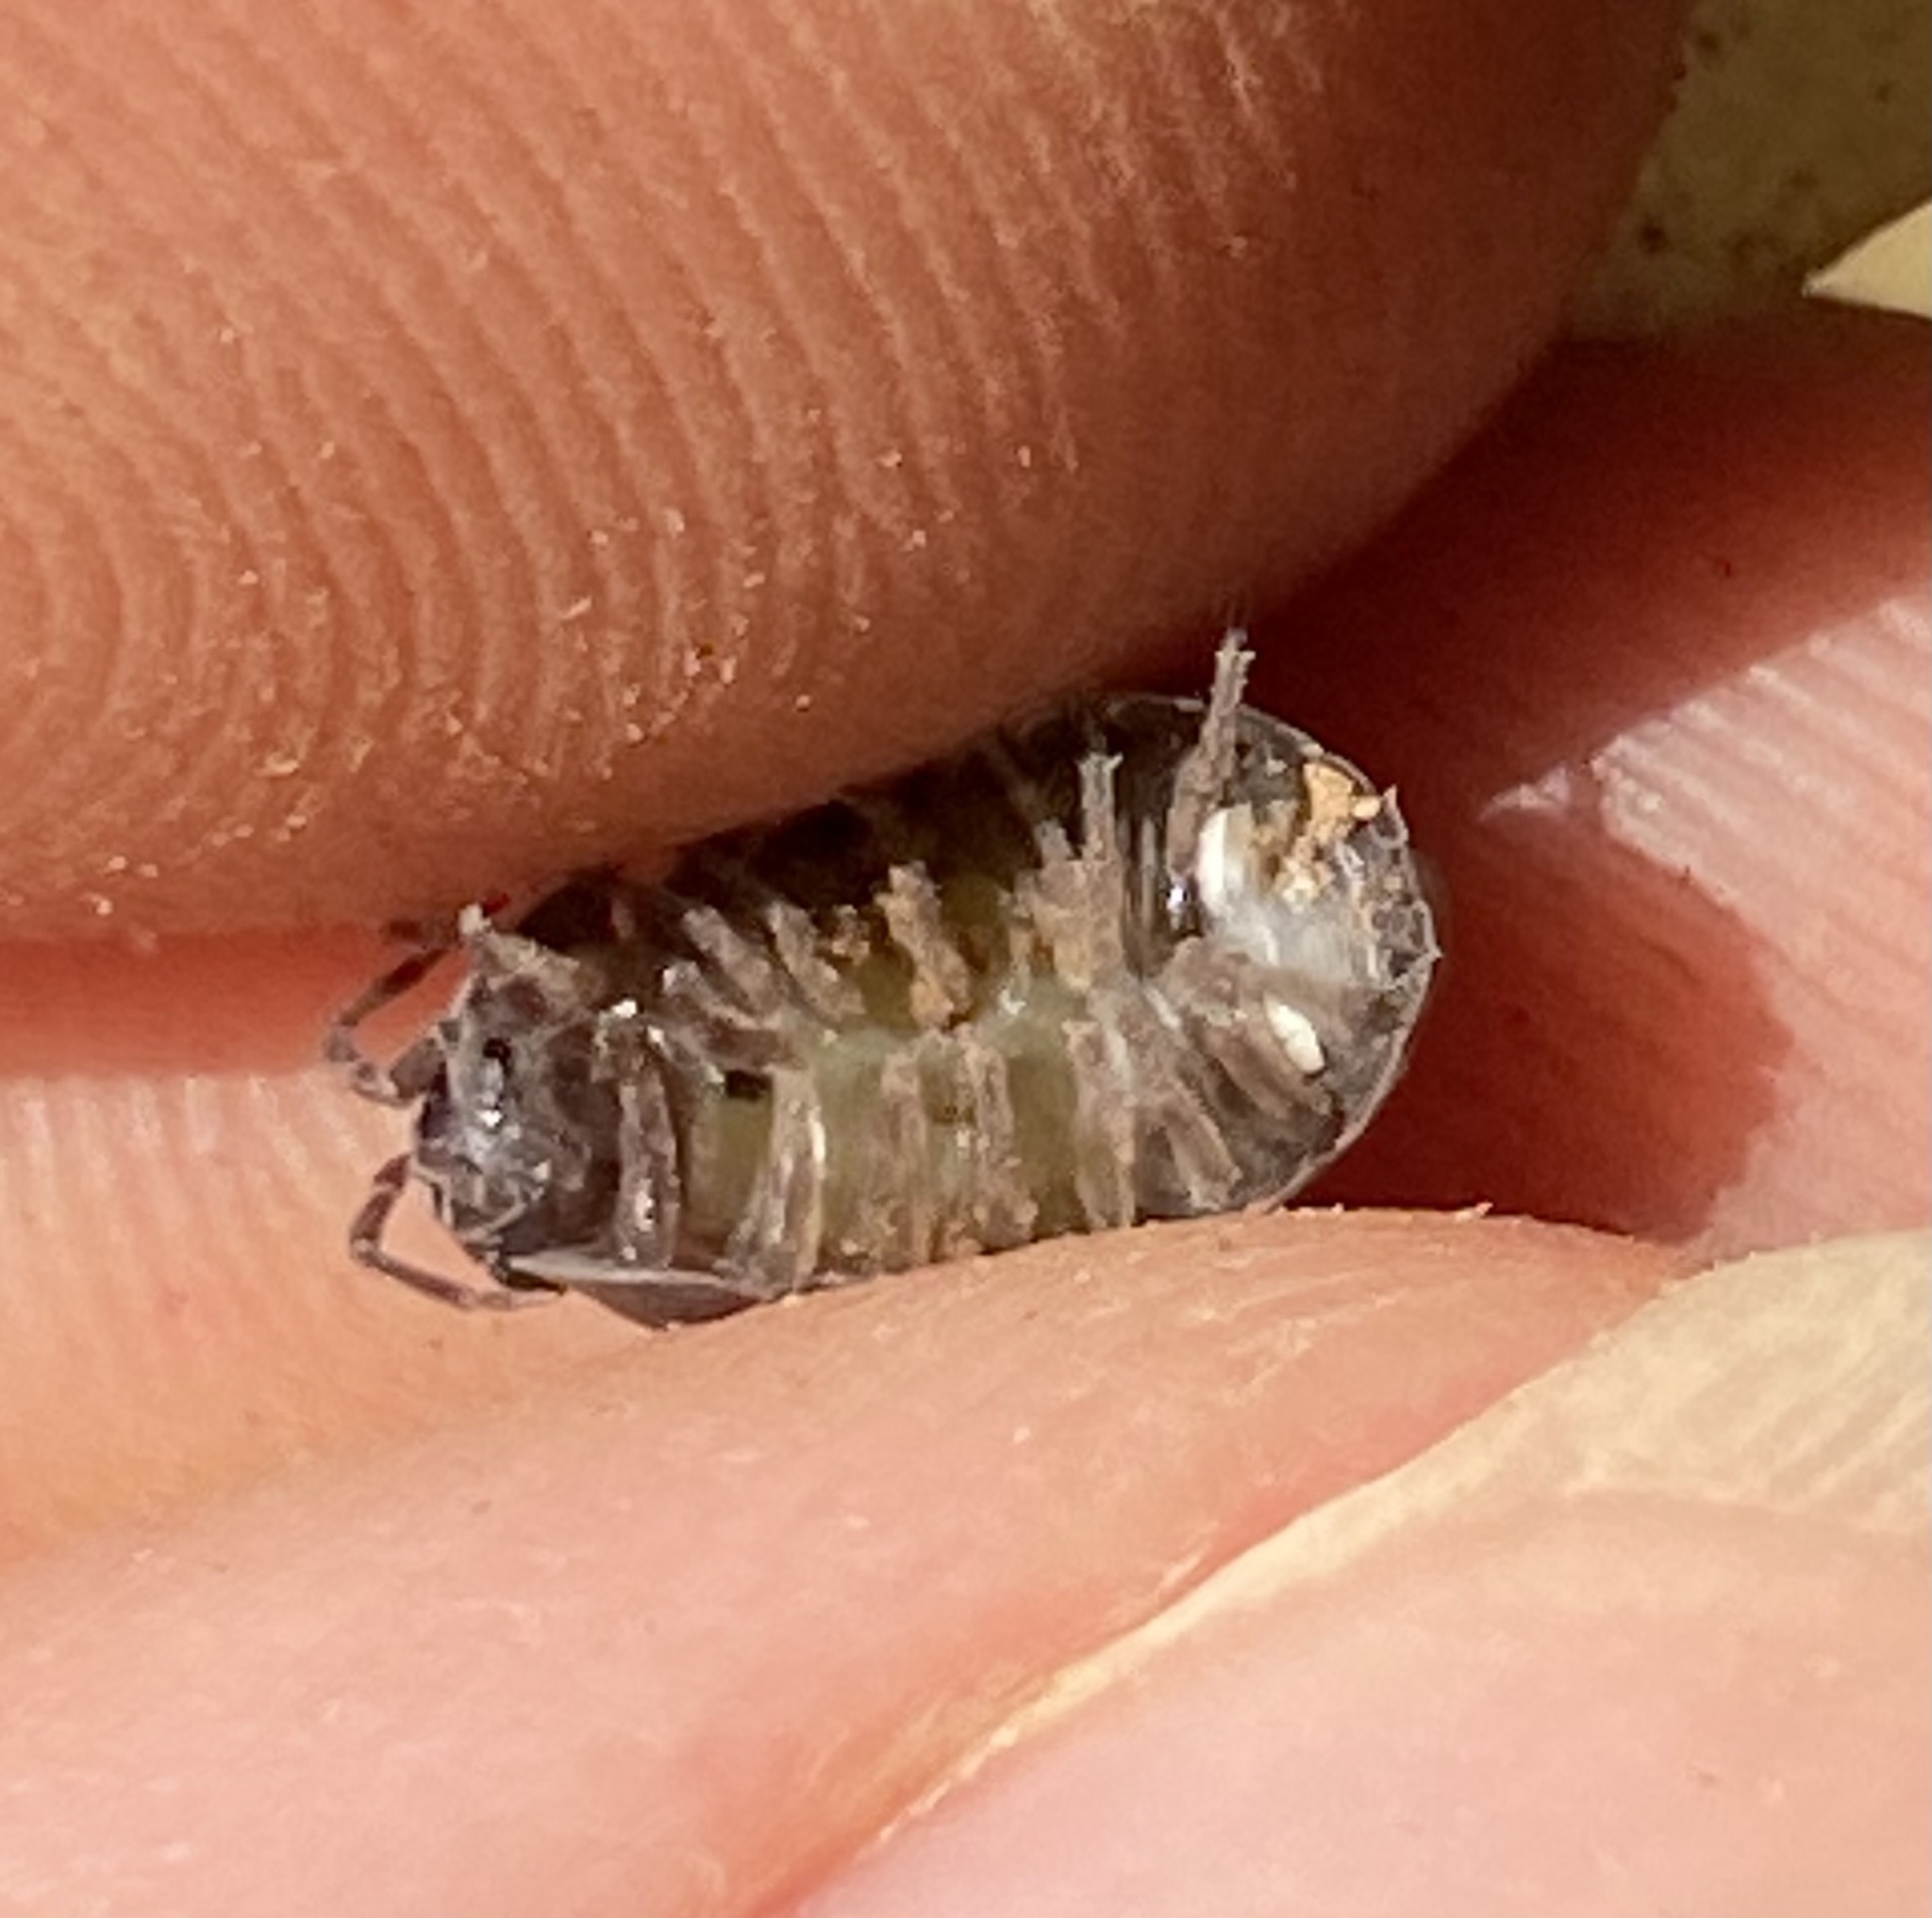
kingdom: Animalia
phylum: Arthropoda
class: Malacostraca
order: Isopoda
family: Armadillidiidae
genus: Armadillidium
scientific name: Armadillidium vulgare
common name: Common pill woodlouse
